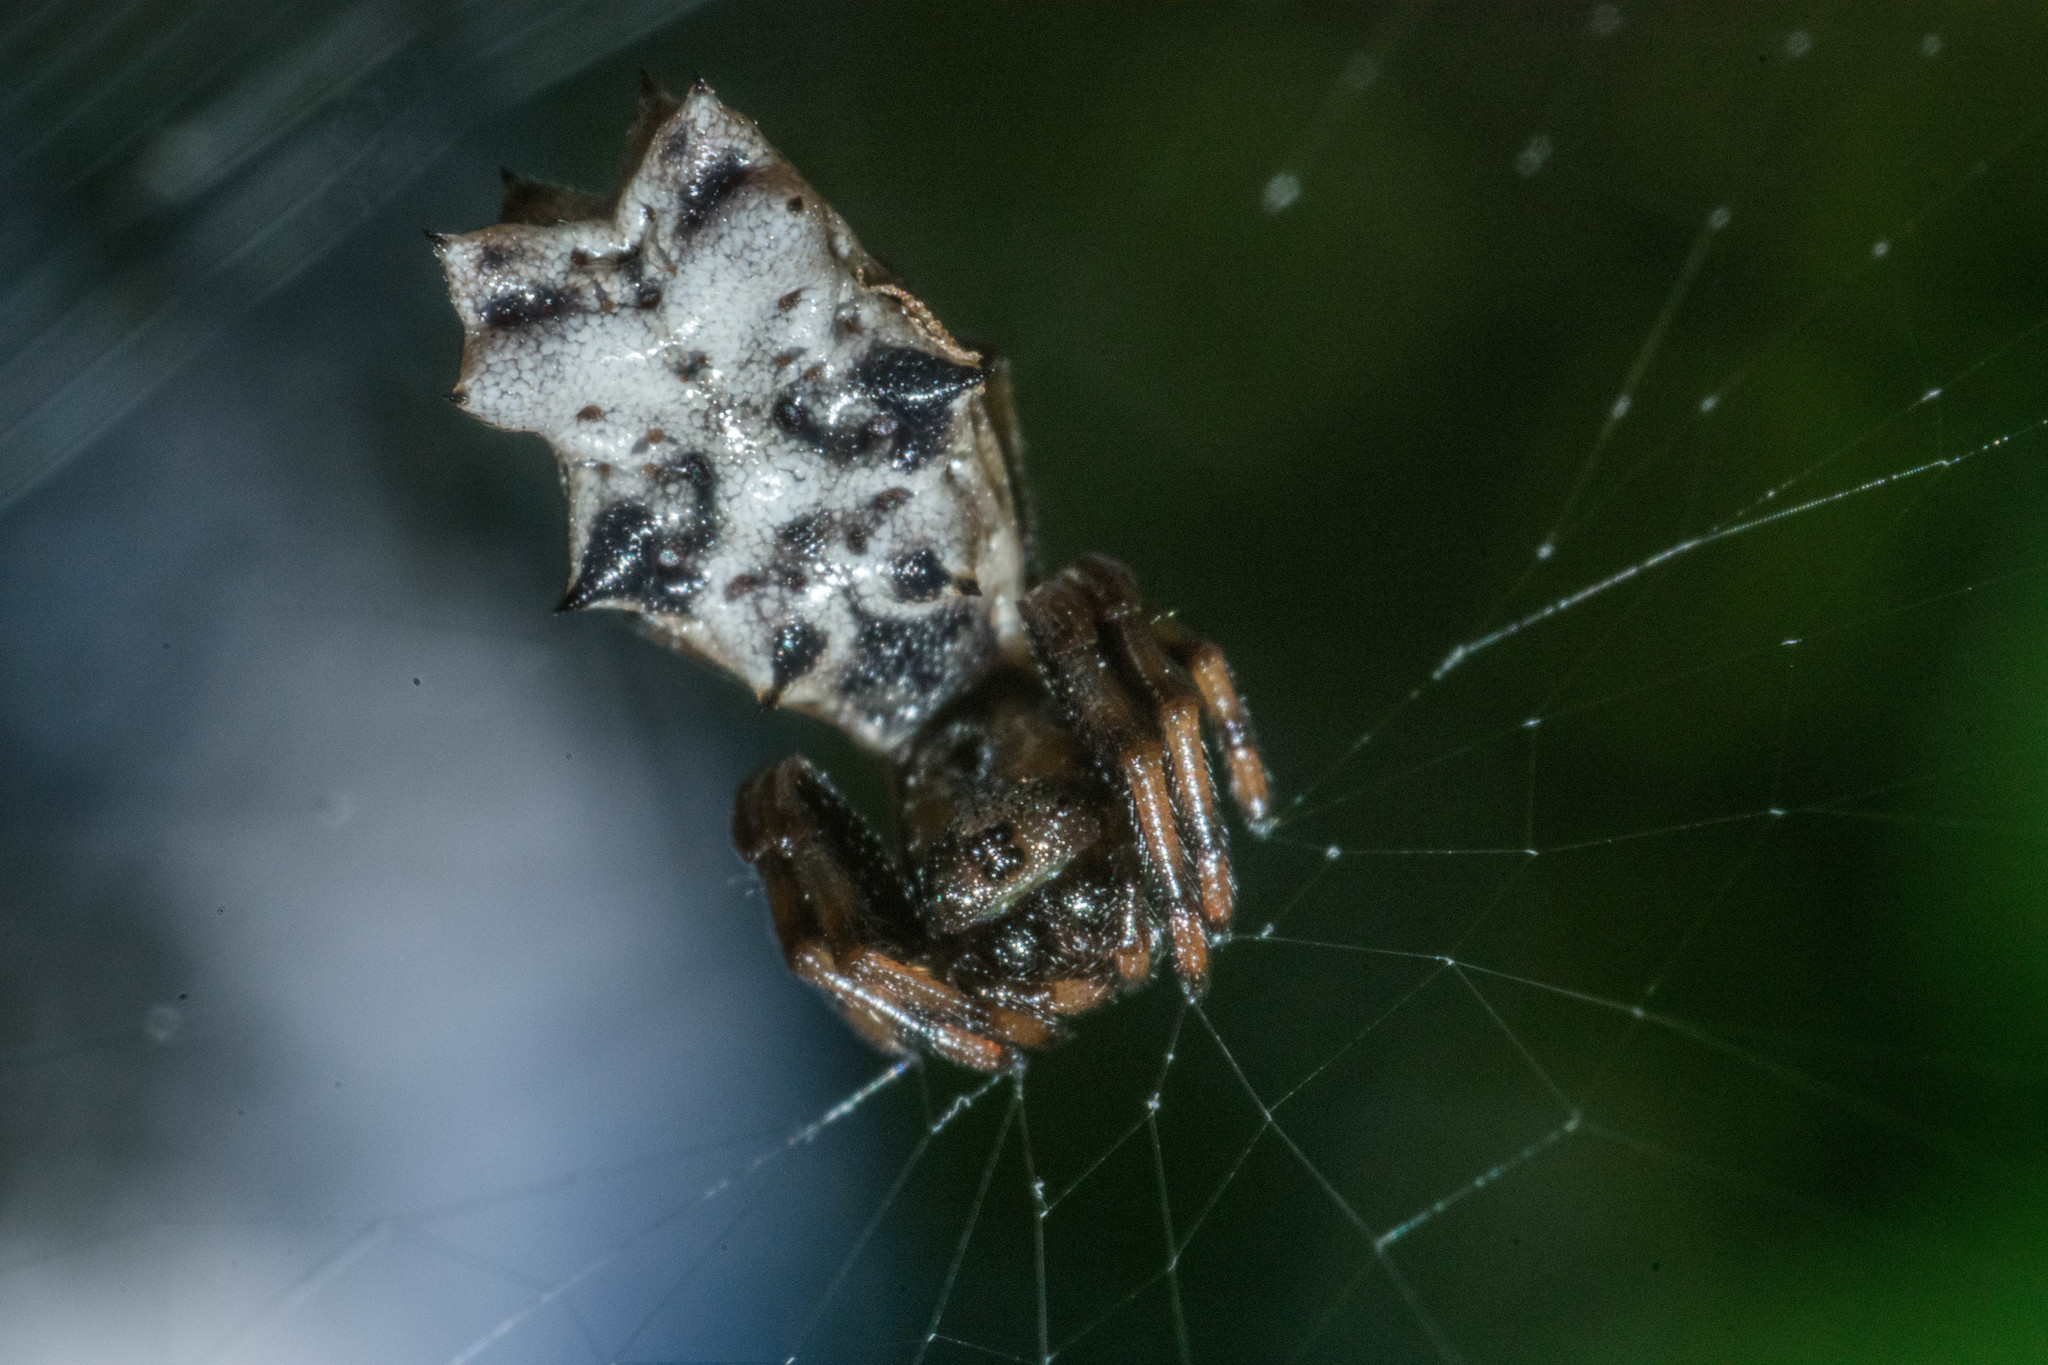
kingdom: Animalia
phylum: Arthropoda
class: Arachnida
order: Araneae
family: Araneidae
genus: Micrathena
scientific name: Micrathena gracilis
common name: Orb weavers
